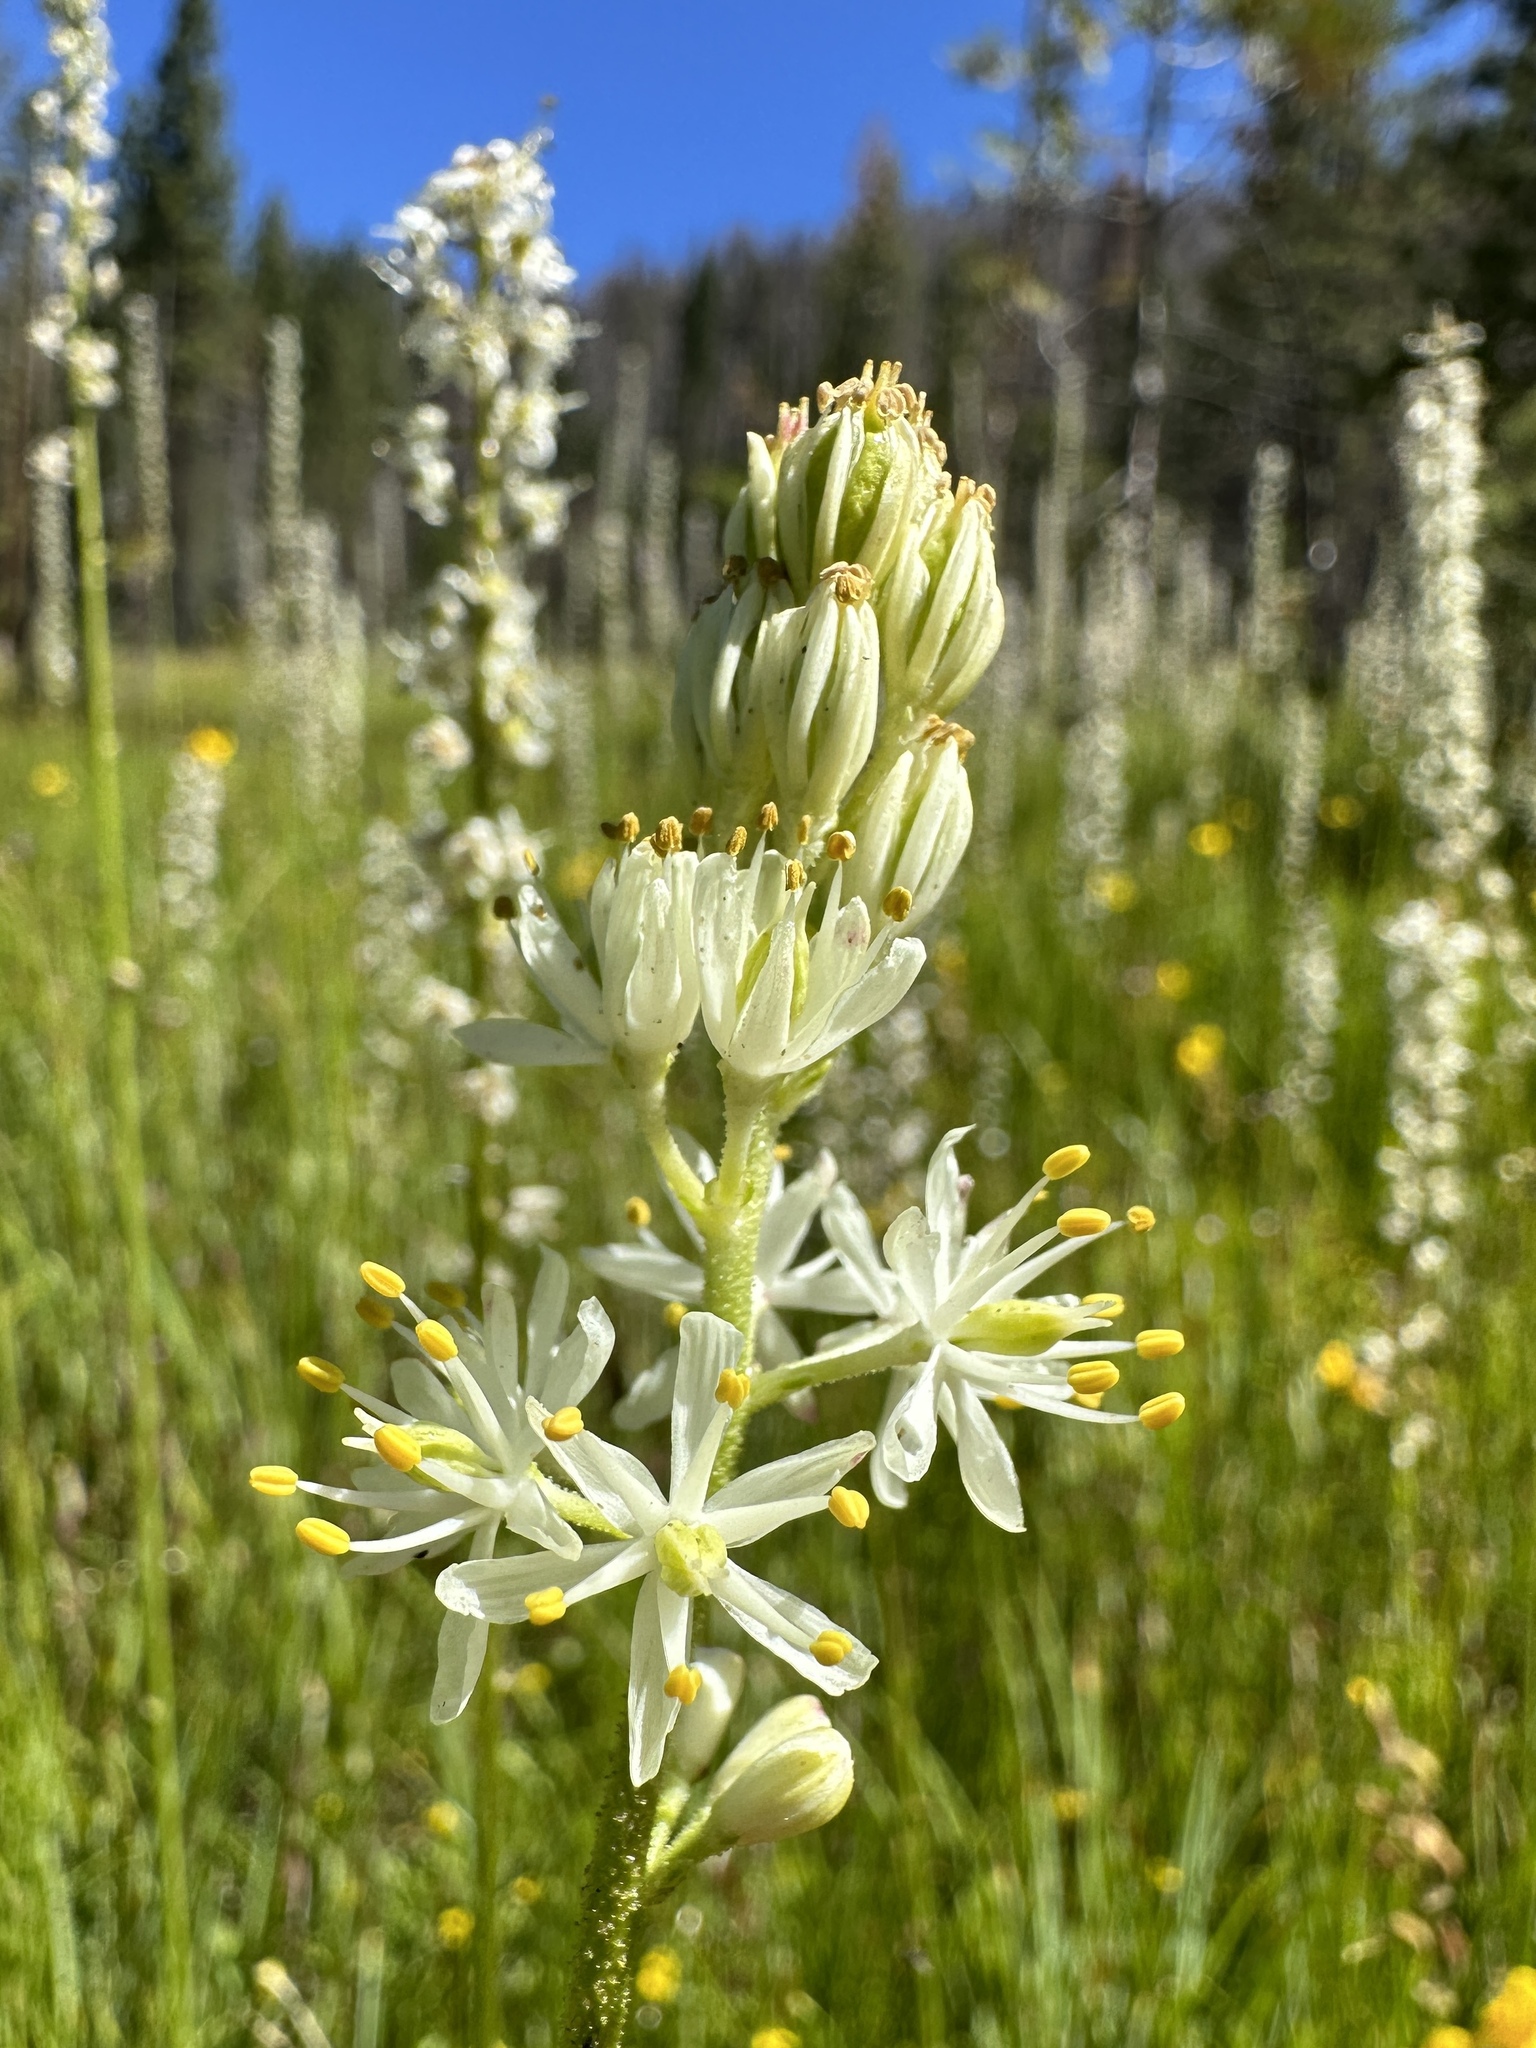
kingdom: Plantae
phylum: Tracheophyta
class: Liliopsida
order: Alismatales
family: Tofieldiaceae
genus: Triantha
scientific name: Triantha occidentalis
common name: Western false asphodel
